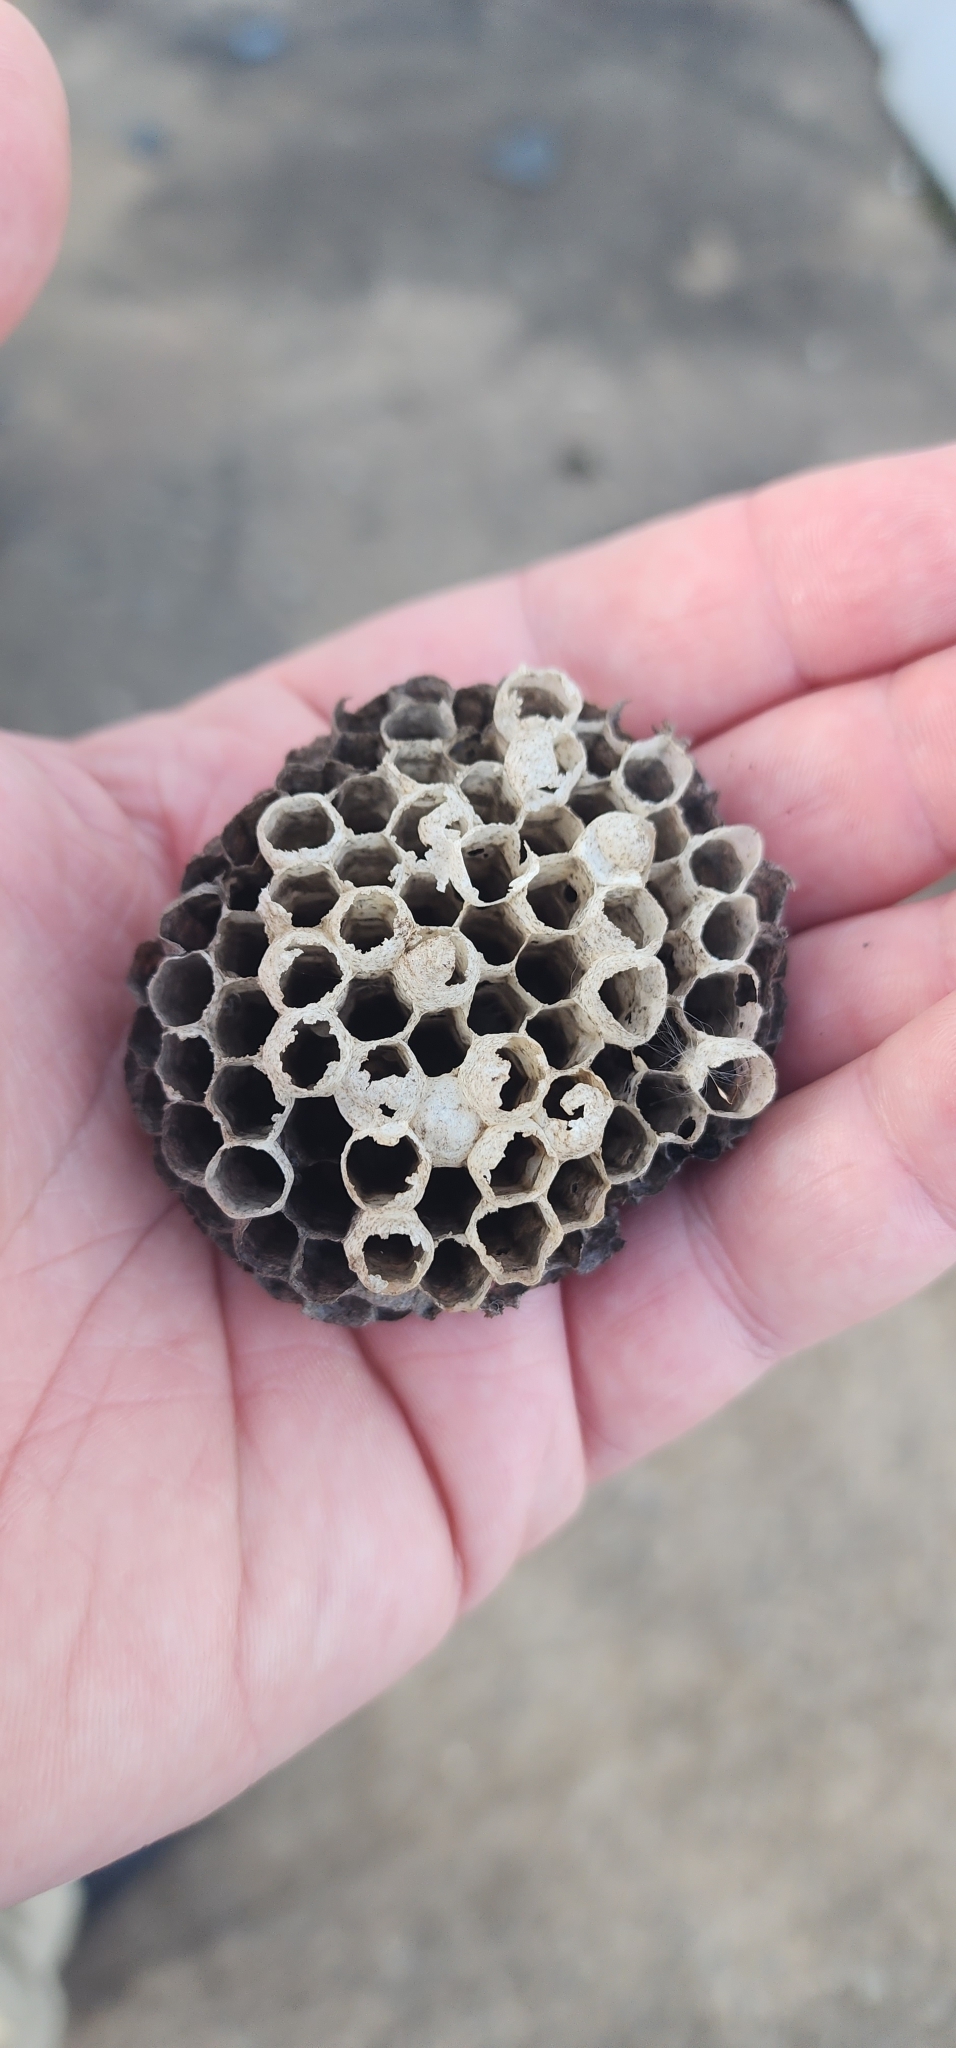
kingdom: Animalia
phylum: Arthropoda
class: Insecta
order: Hymenoptera
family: Eumenidae
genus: Polistes
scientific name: Polistes
